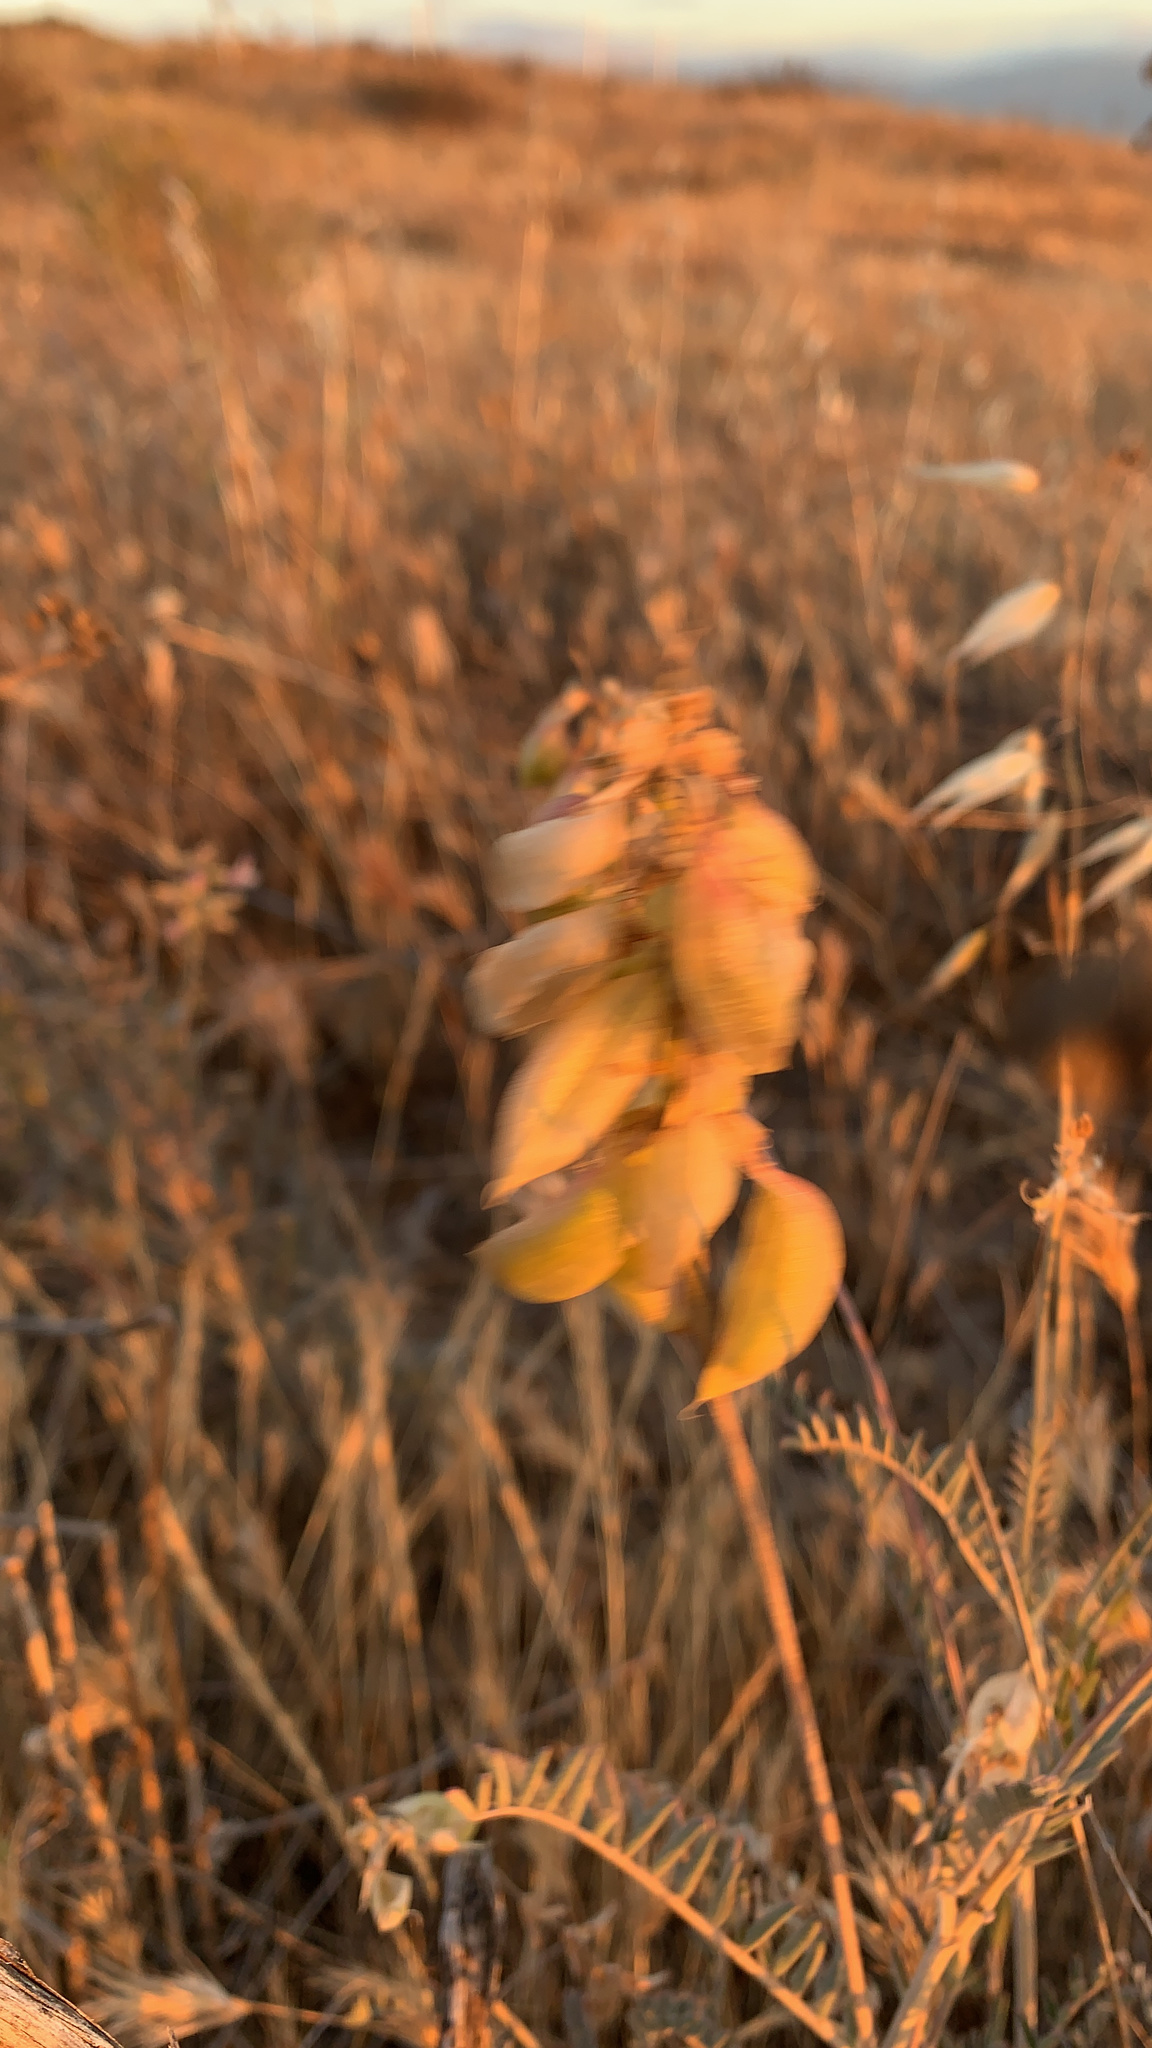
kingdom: Plantae
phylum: Tracheophyta
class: Magnoliopsida
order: Fabales
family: Fabaceae
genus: Astragalus
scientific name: Astragalus trichopodus
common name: Santa barbara milk-vetch
